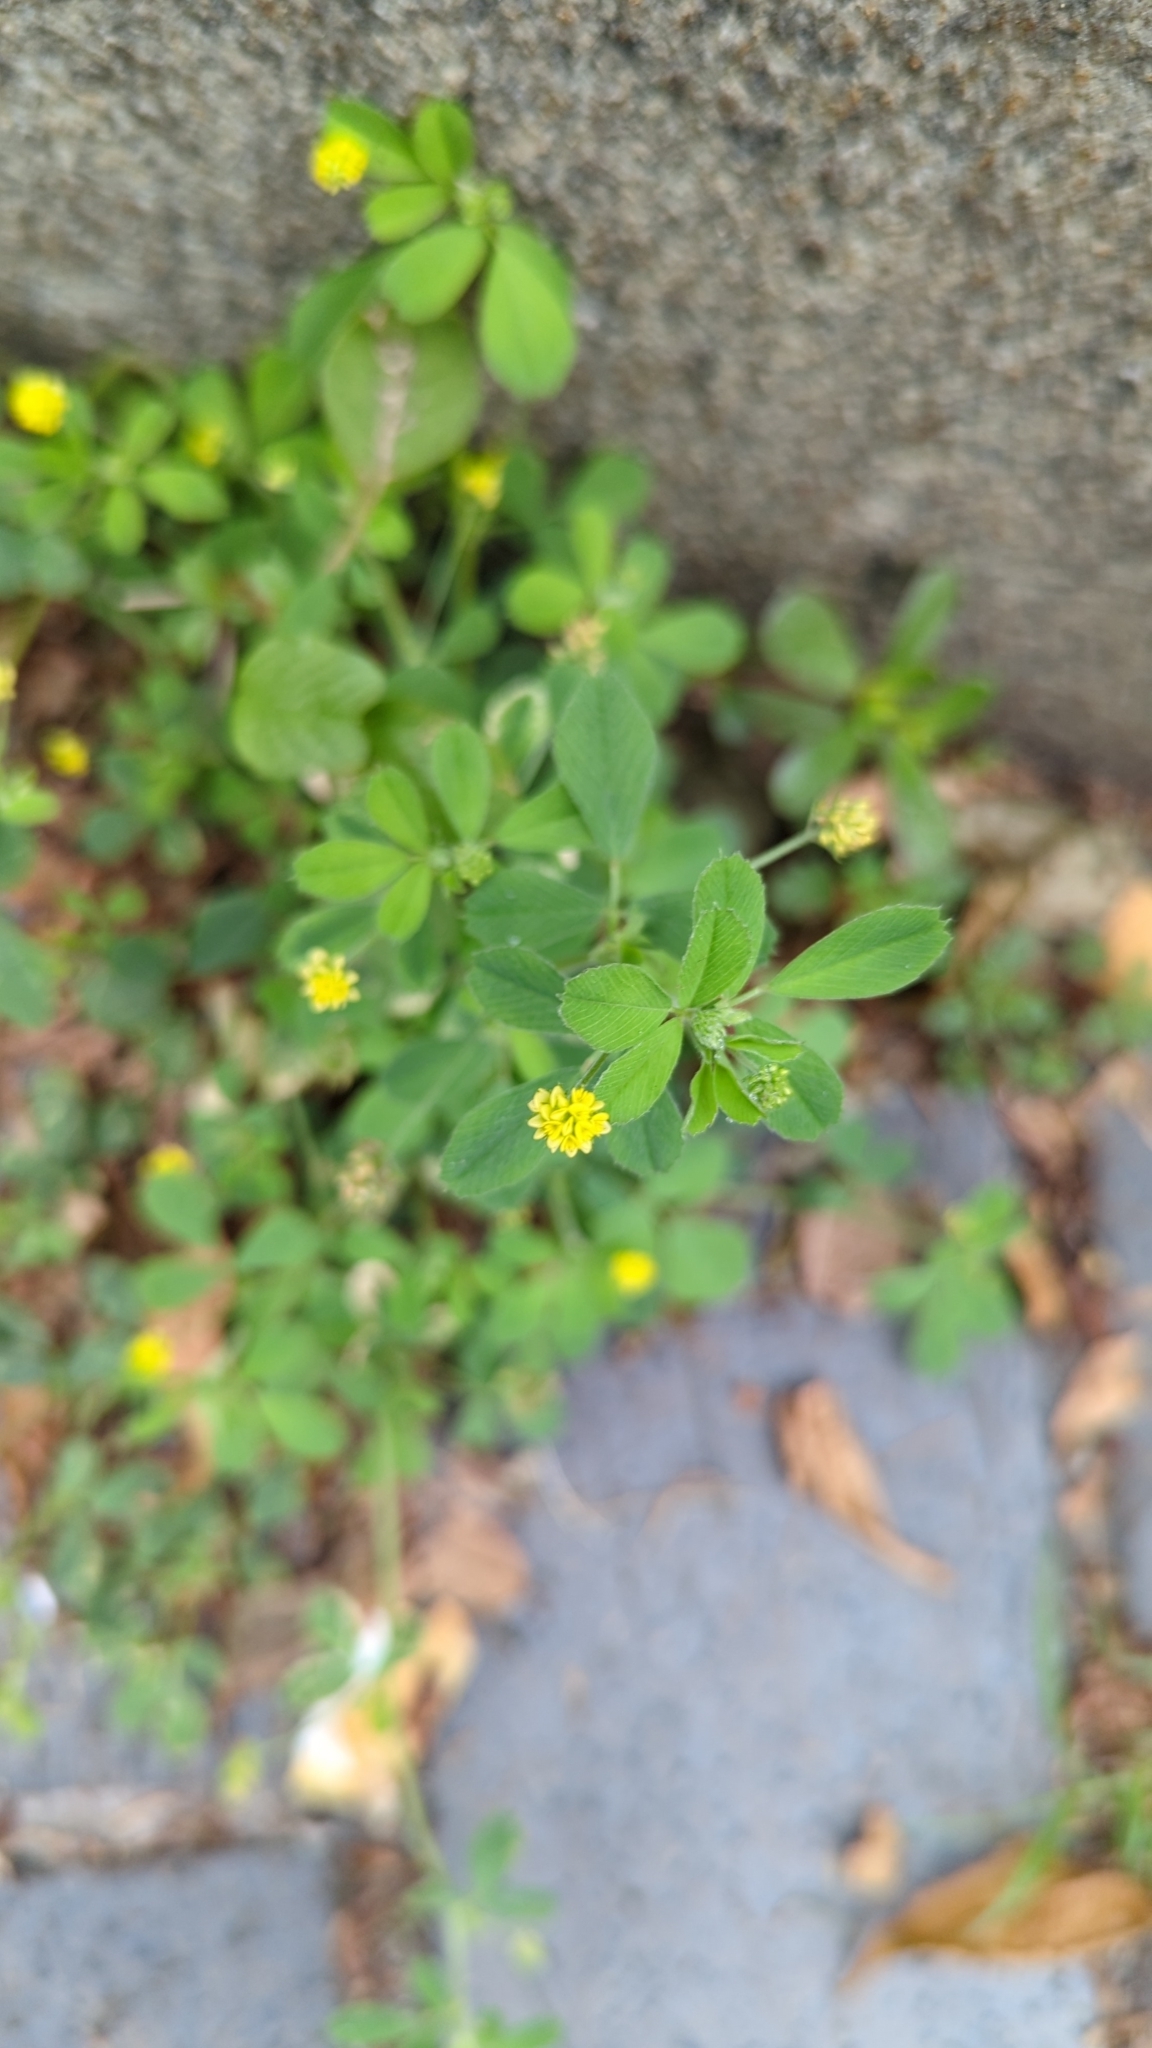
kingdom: Plantae
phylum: Tracheophyta
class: Magnoliopsida
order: Fabales
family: Fabaceae
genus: Medicago
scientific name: Medicago lupulina
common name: Black medick
